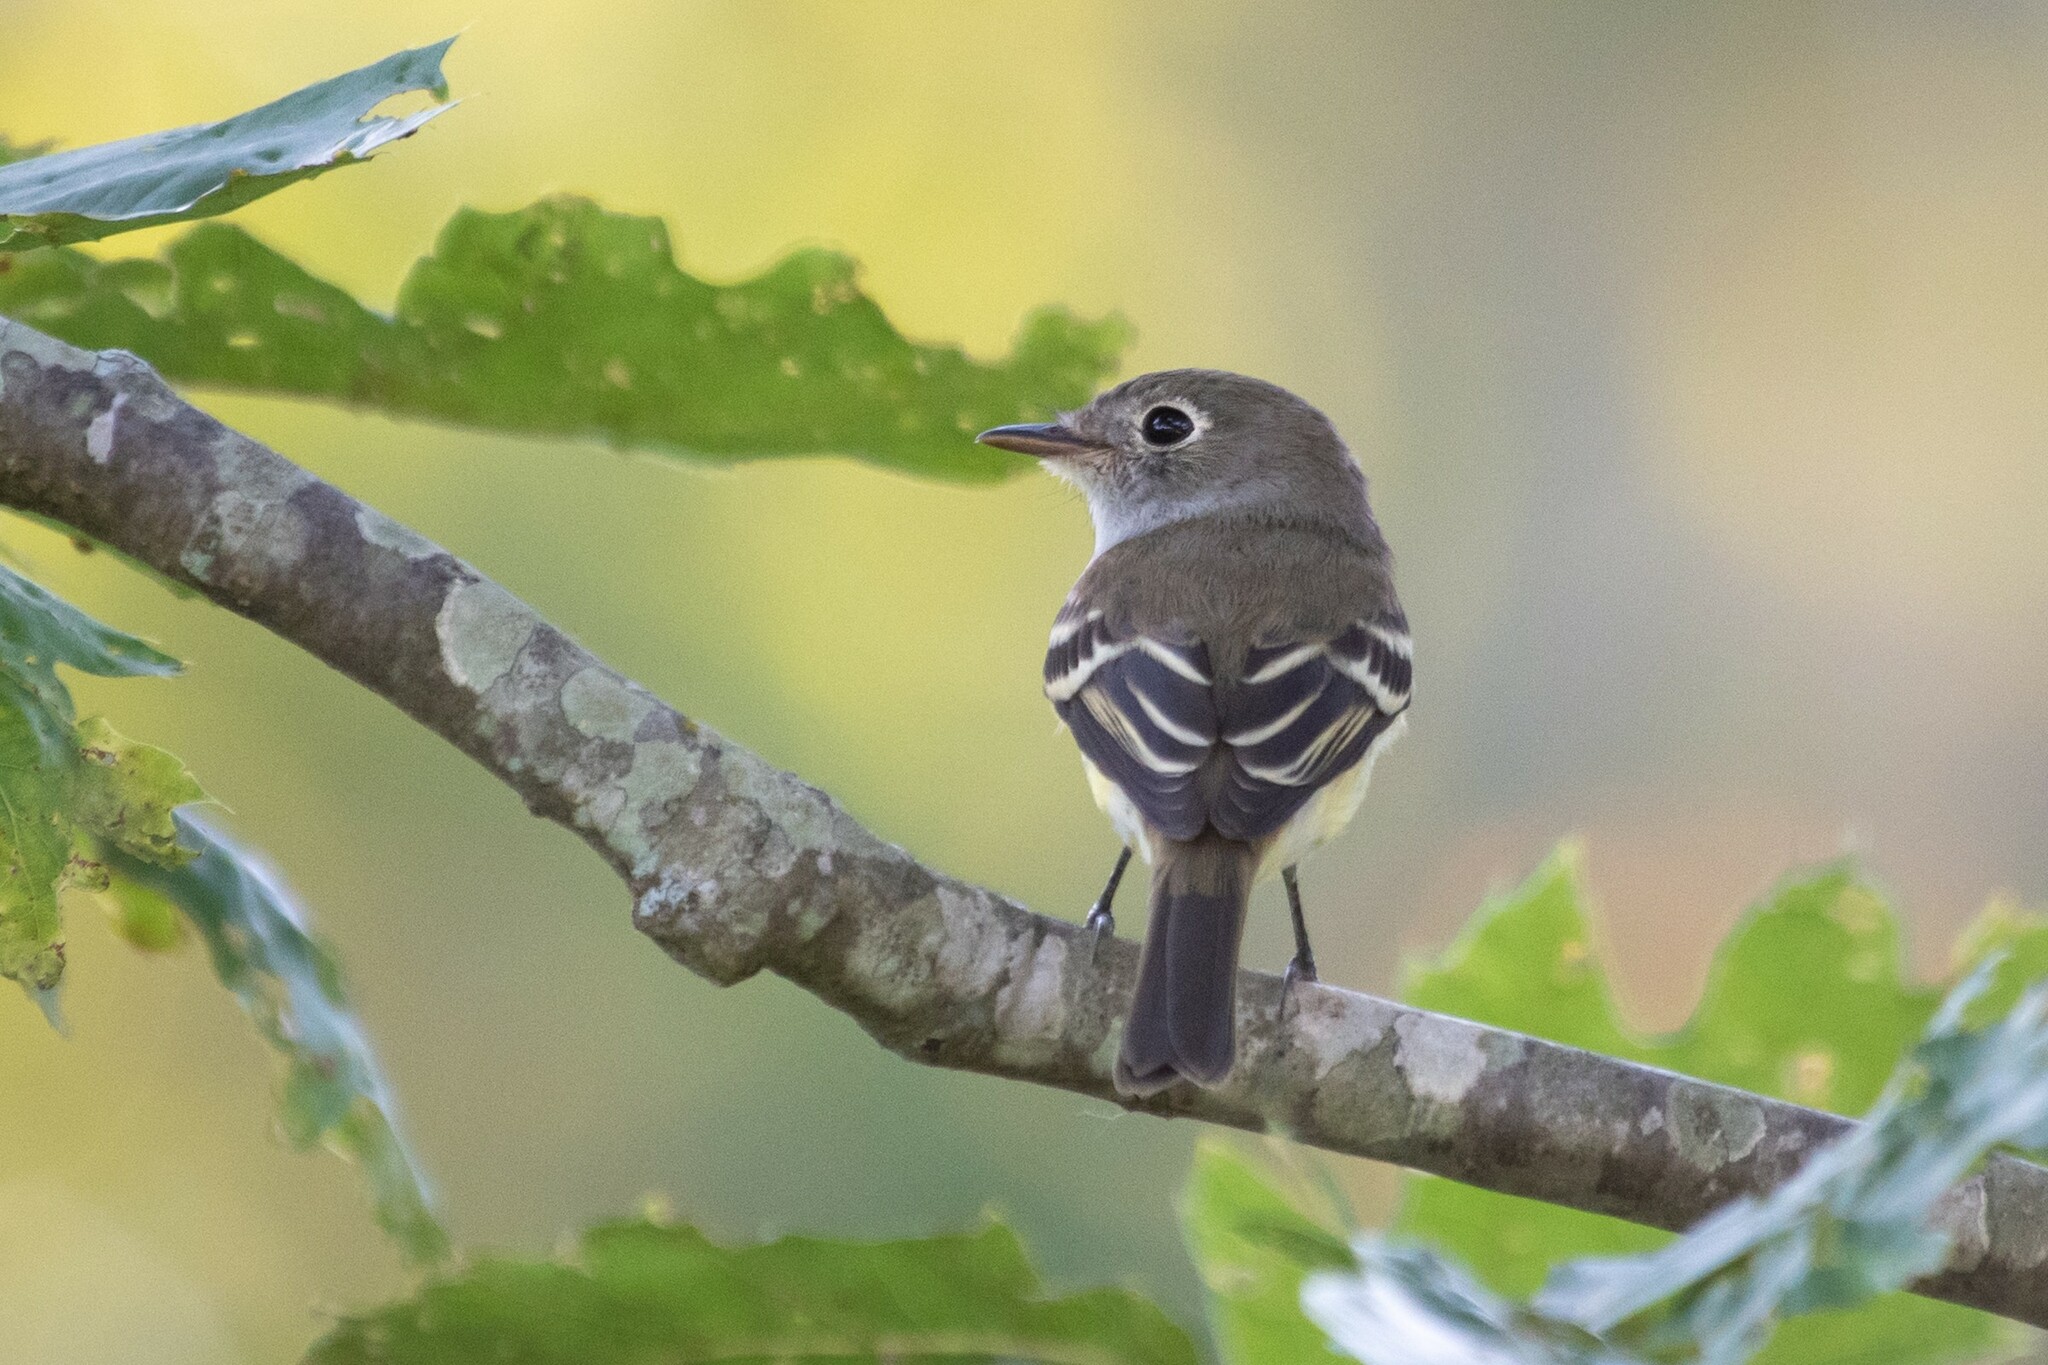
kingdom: Animalia
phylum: Chordata
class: Aves
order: Passeriformes
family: Tyrannidae
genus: Empidonax
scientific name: Empidonax minimus
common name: Least flycatcher
